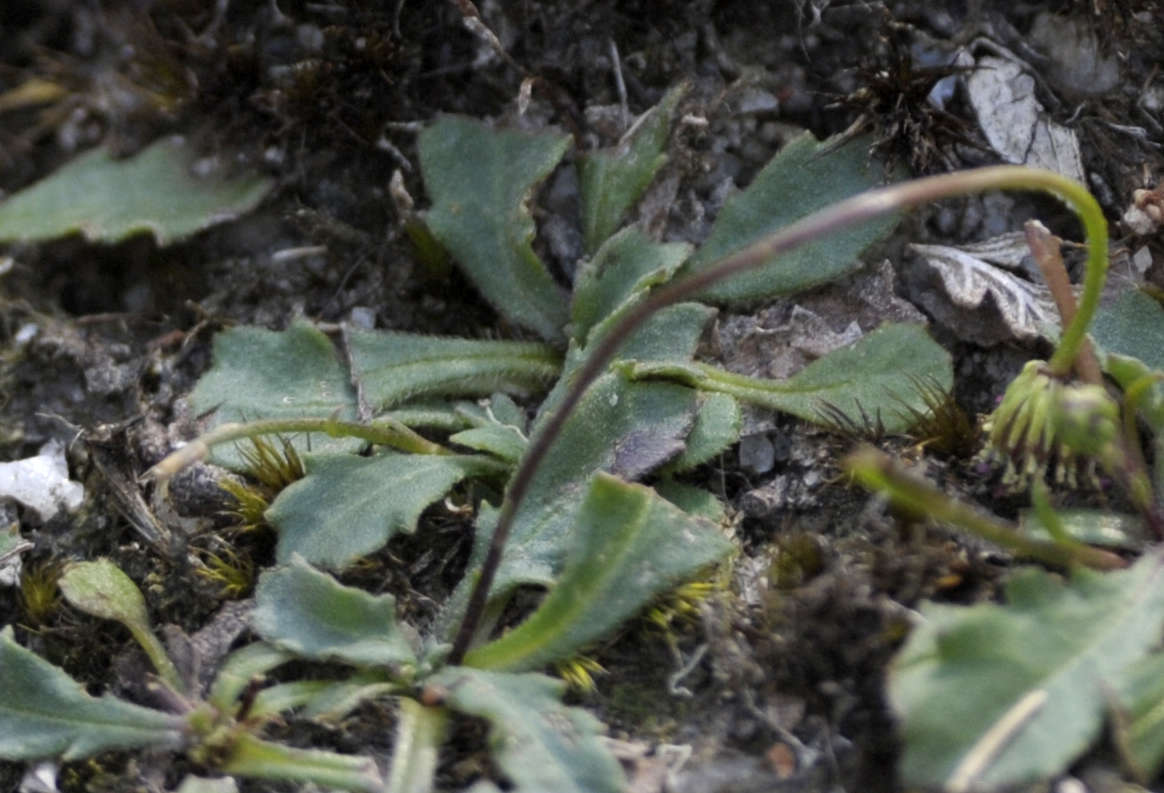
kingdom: Plantae
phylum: Tracheophyta
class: Magnoliopsida
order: Asterales
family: Asteraceae
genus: Lagenophora
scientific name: Lagenophora sublyrata ter
